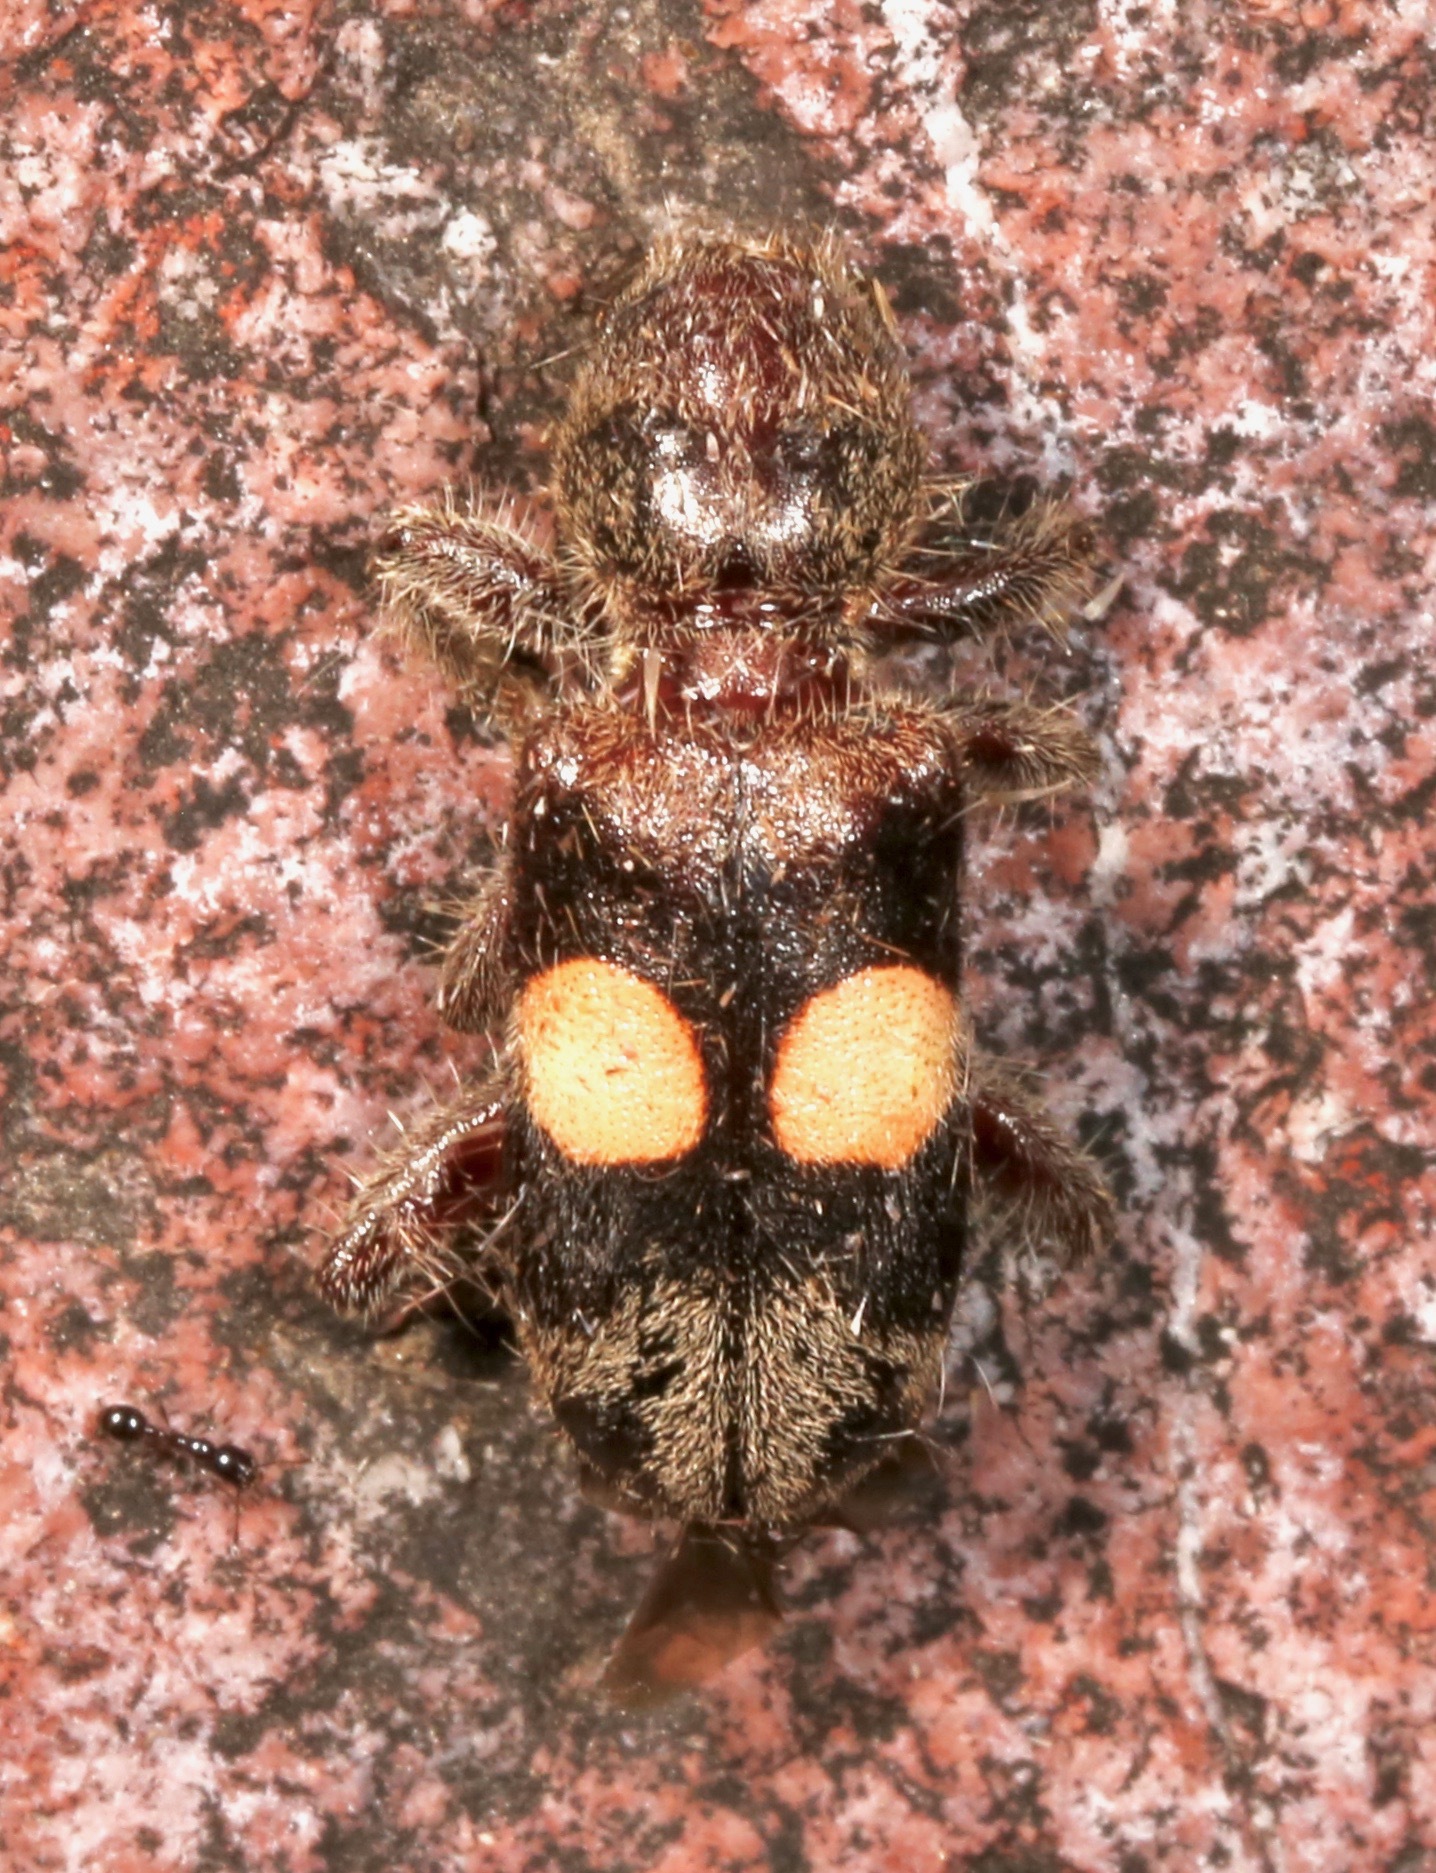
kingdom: Animalia
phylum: Arthropoda
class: Insecta
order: Coleoptera
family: Cleridae
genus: Enoclerus
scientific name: Enoclerus bimaculatus
